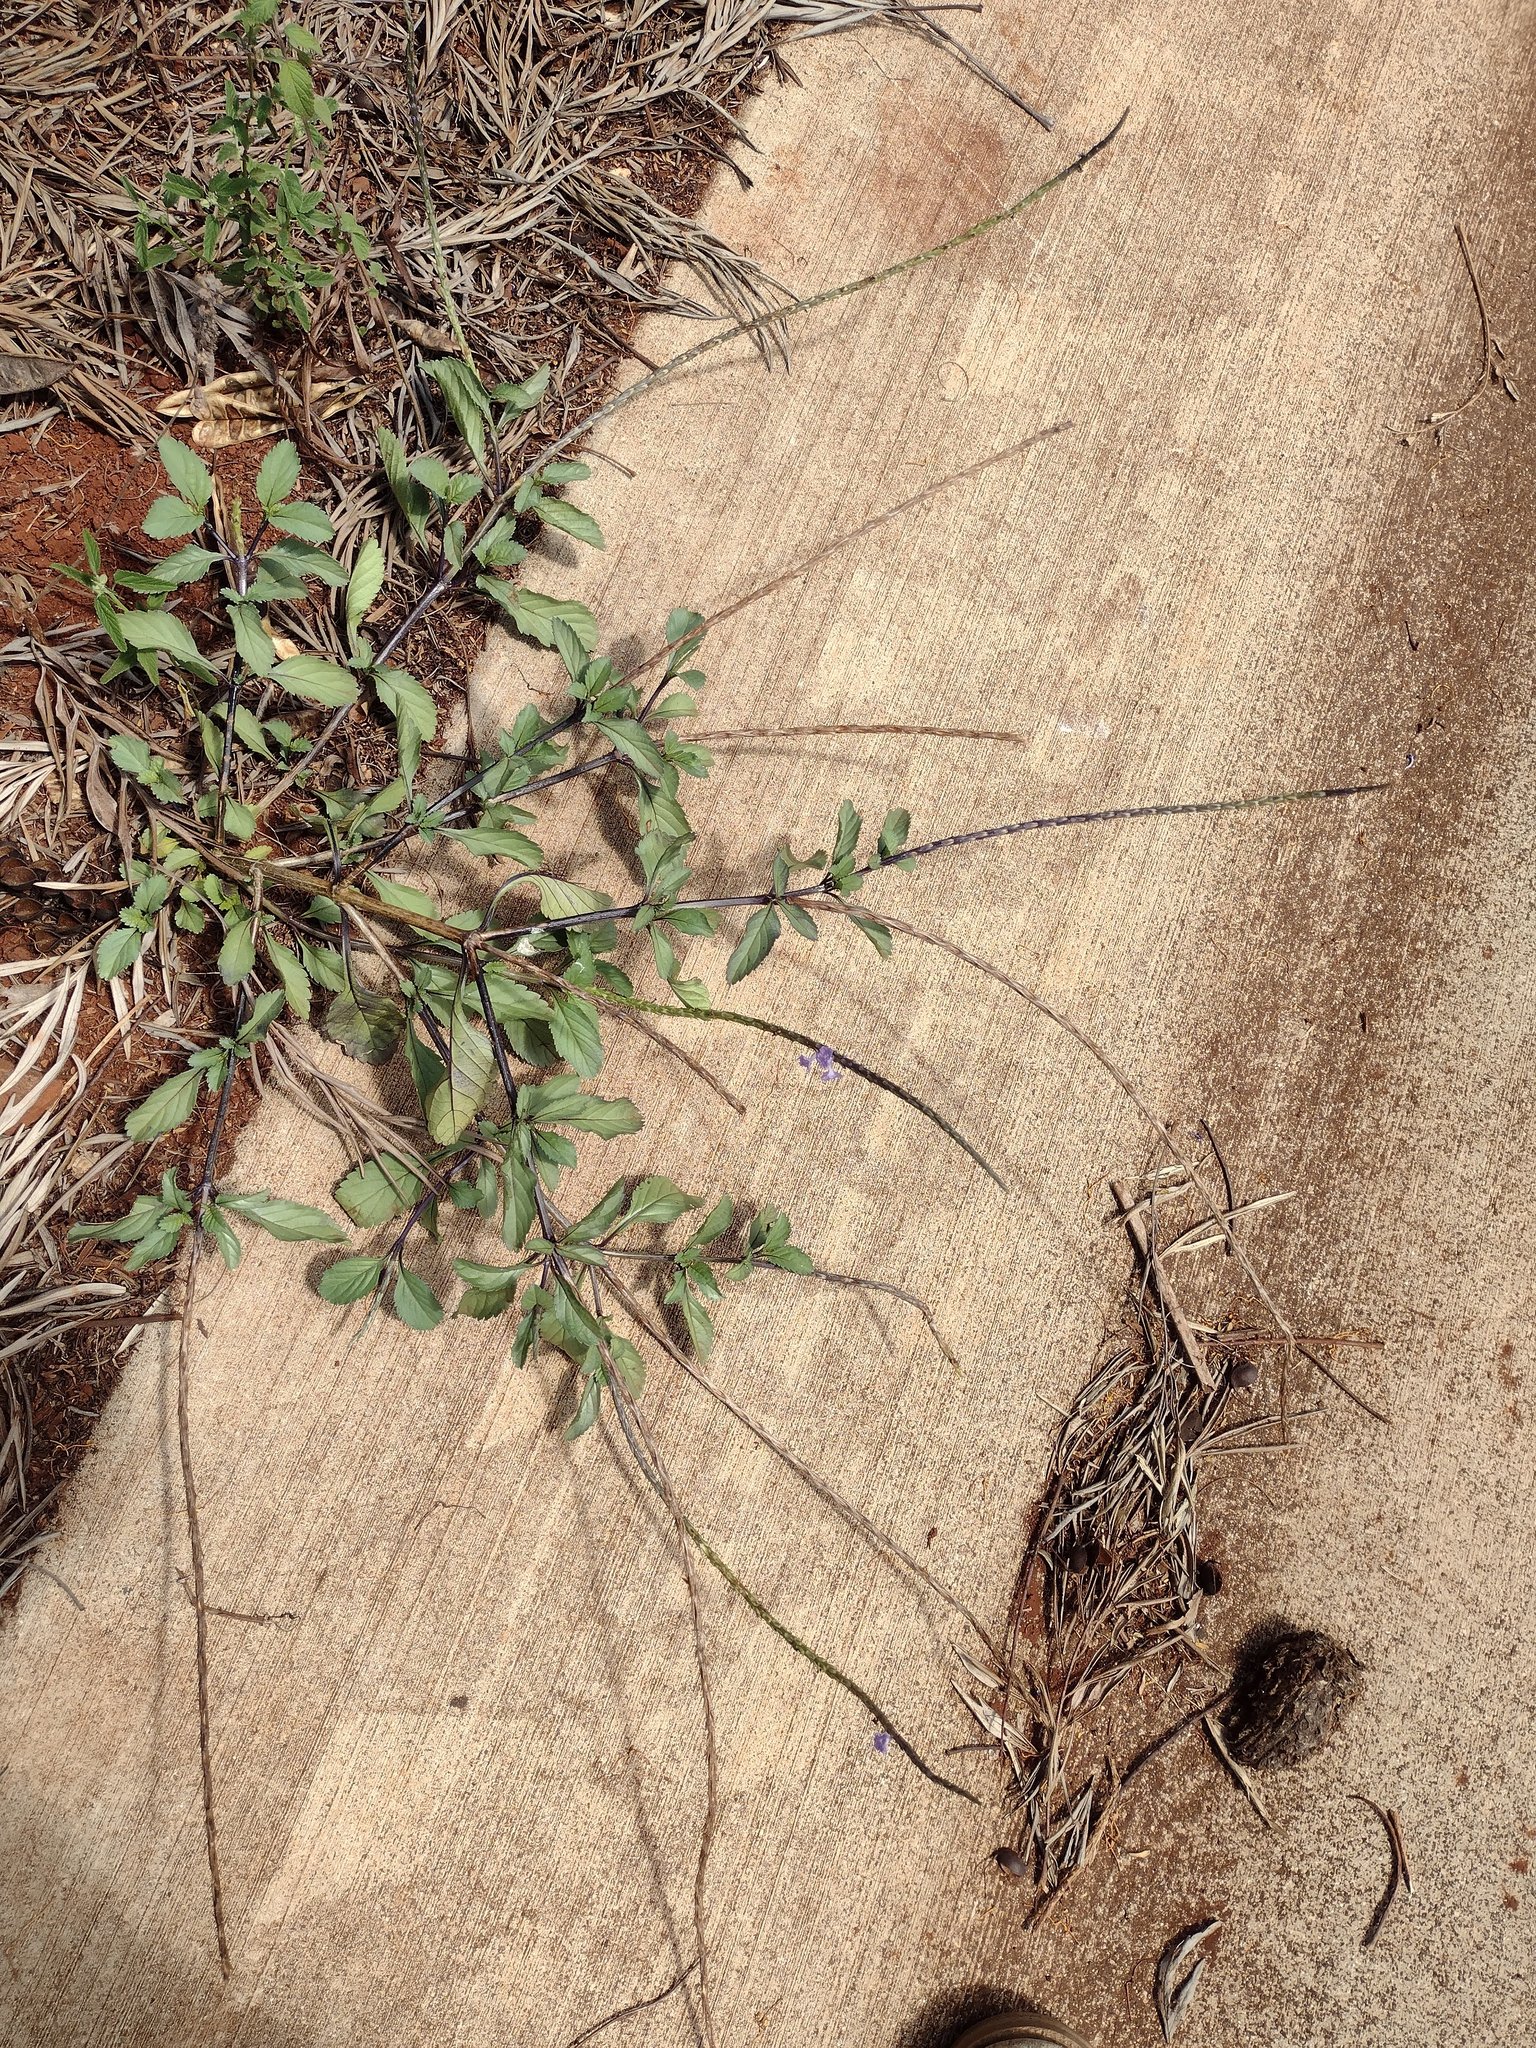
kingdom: Plantae
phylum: Tracheophyta
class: Magnoliopsida
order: Lamiales
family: Verbenaceae
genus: Stachytarpheta
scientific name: Stachytarpheta jamaicensis
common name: Light-blue snakeweed
